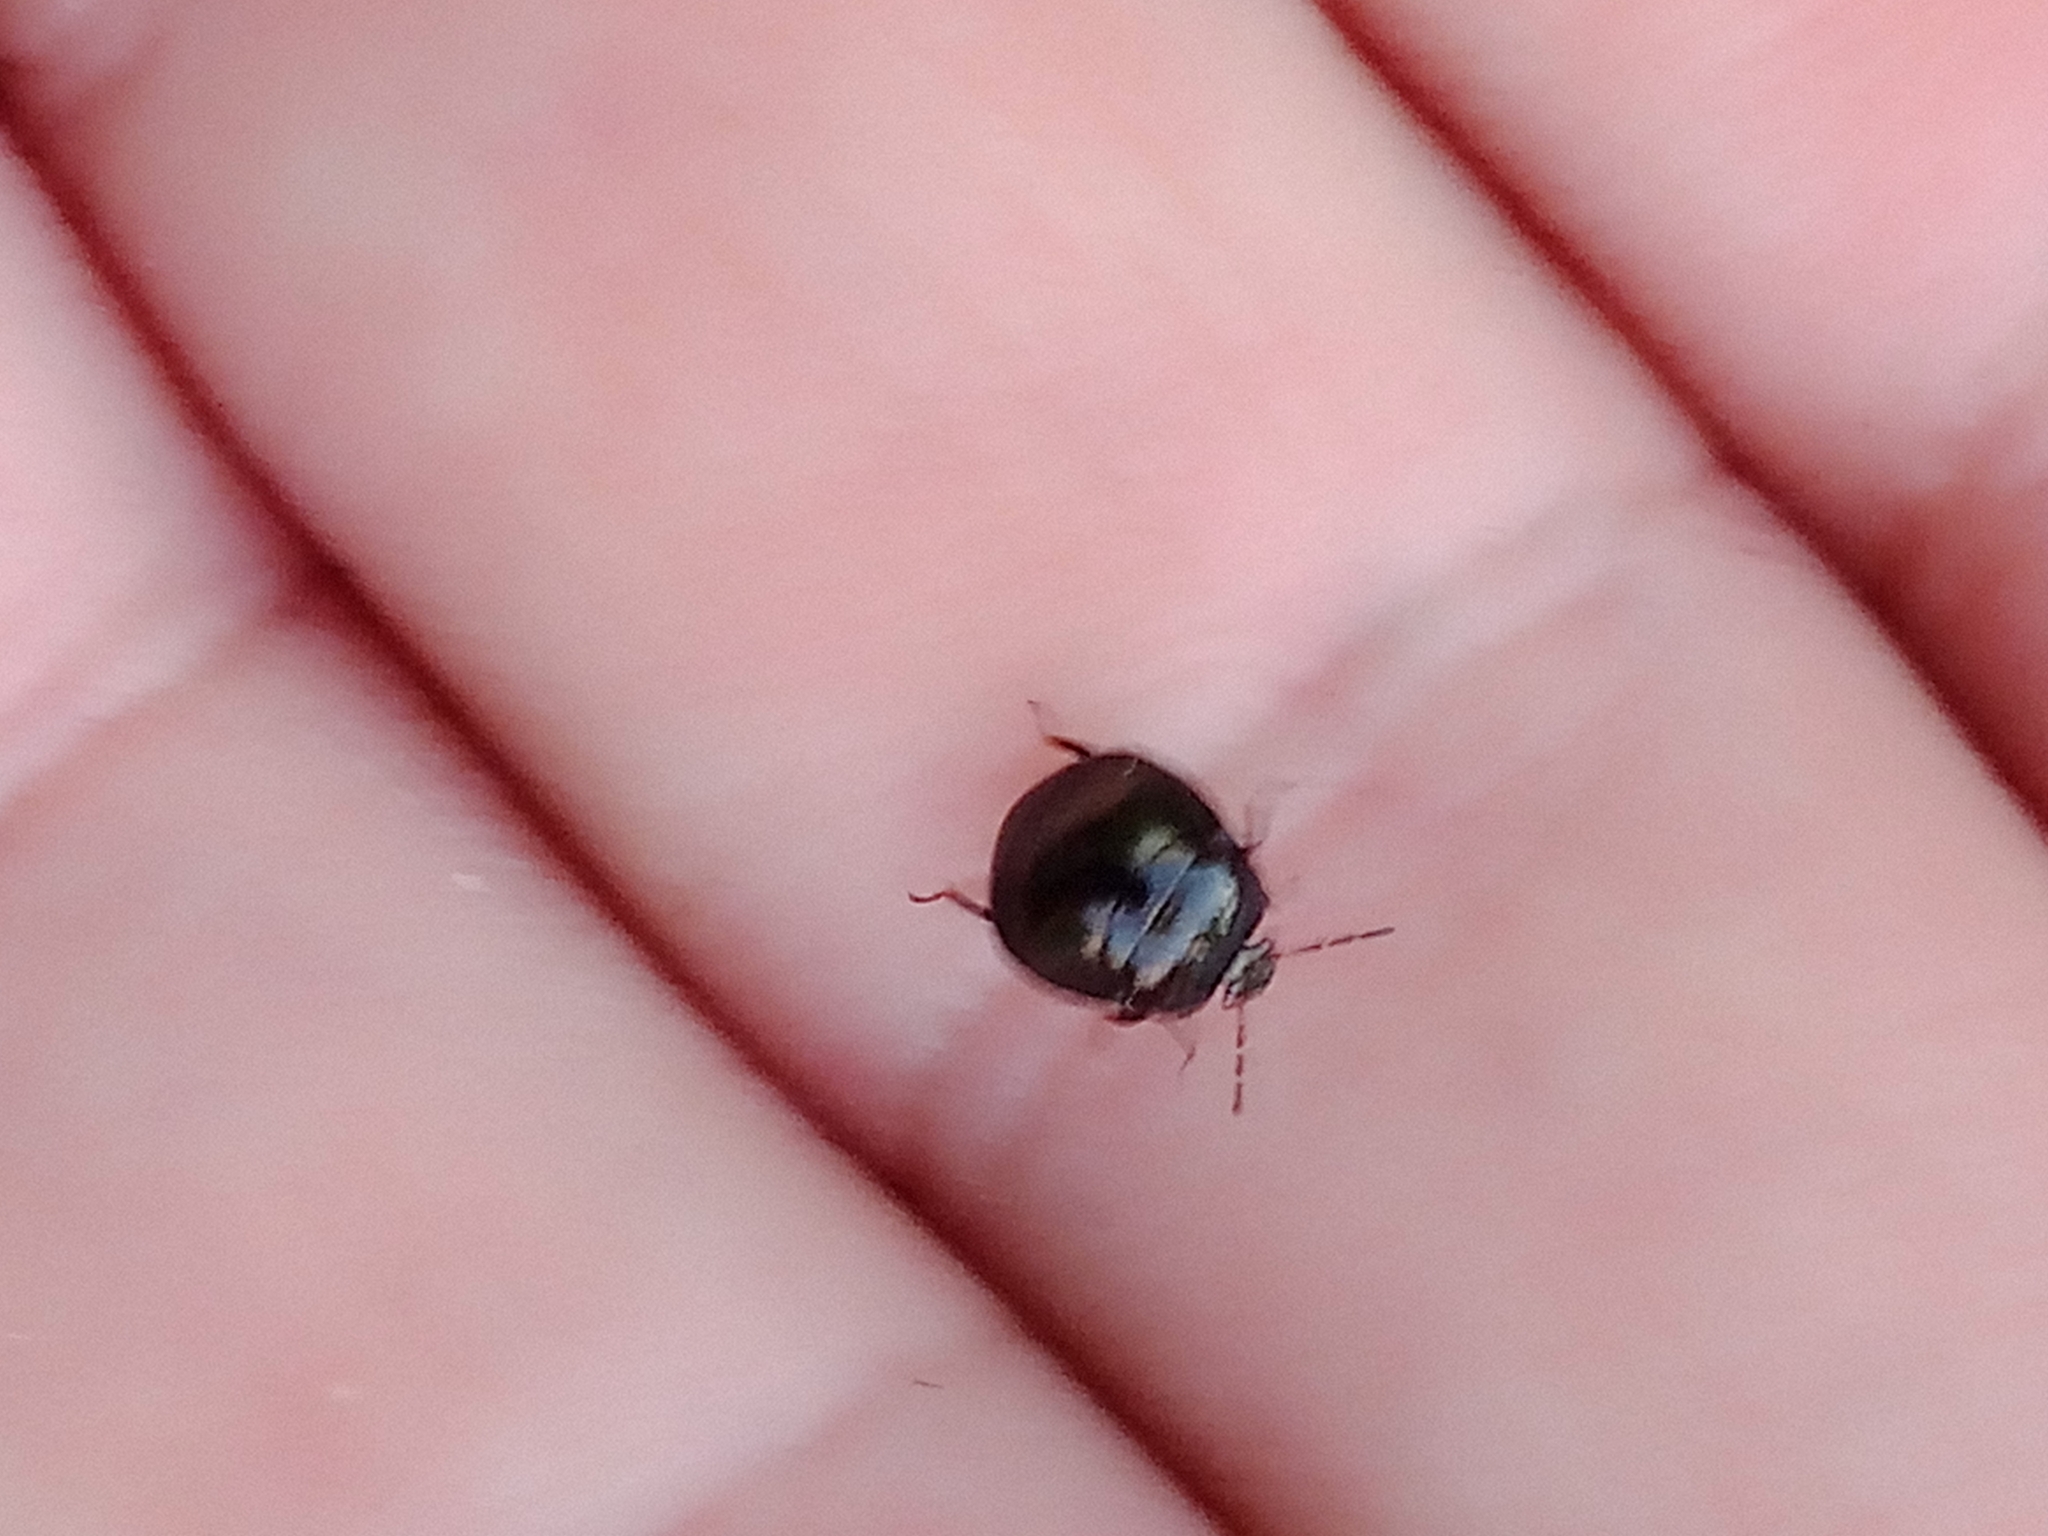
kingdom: Animalia
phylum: Arthropoda
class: Insecta
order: Hemiptera
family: Plataspidae
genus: Coptosoma
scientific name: Coptosoma scutellatum
